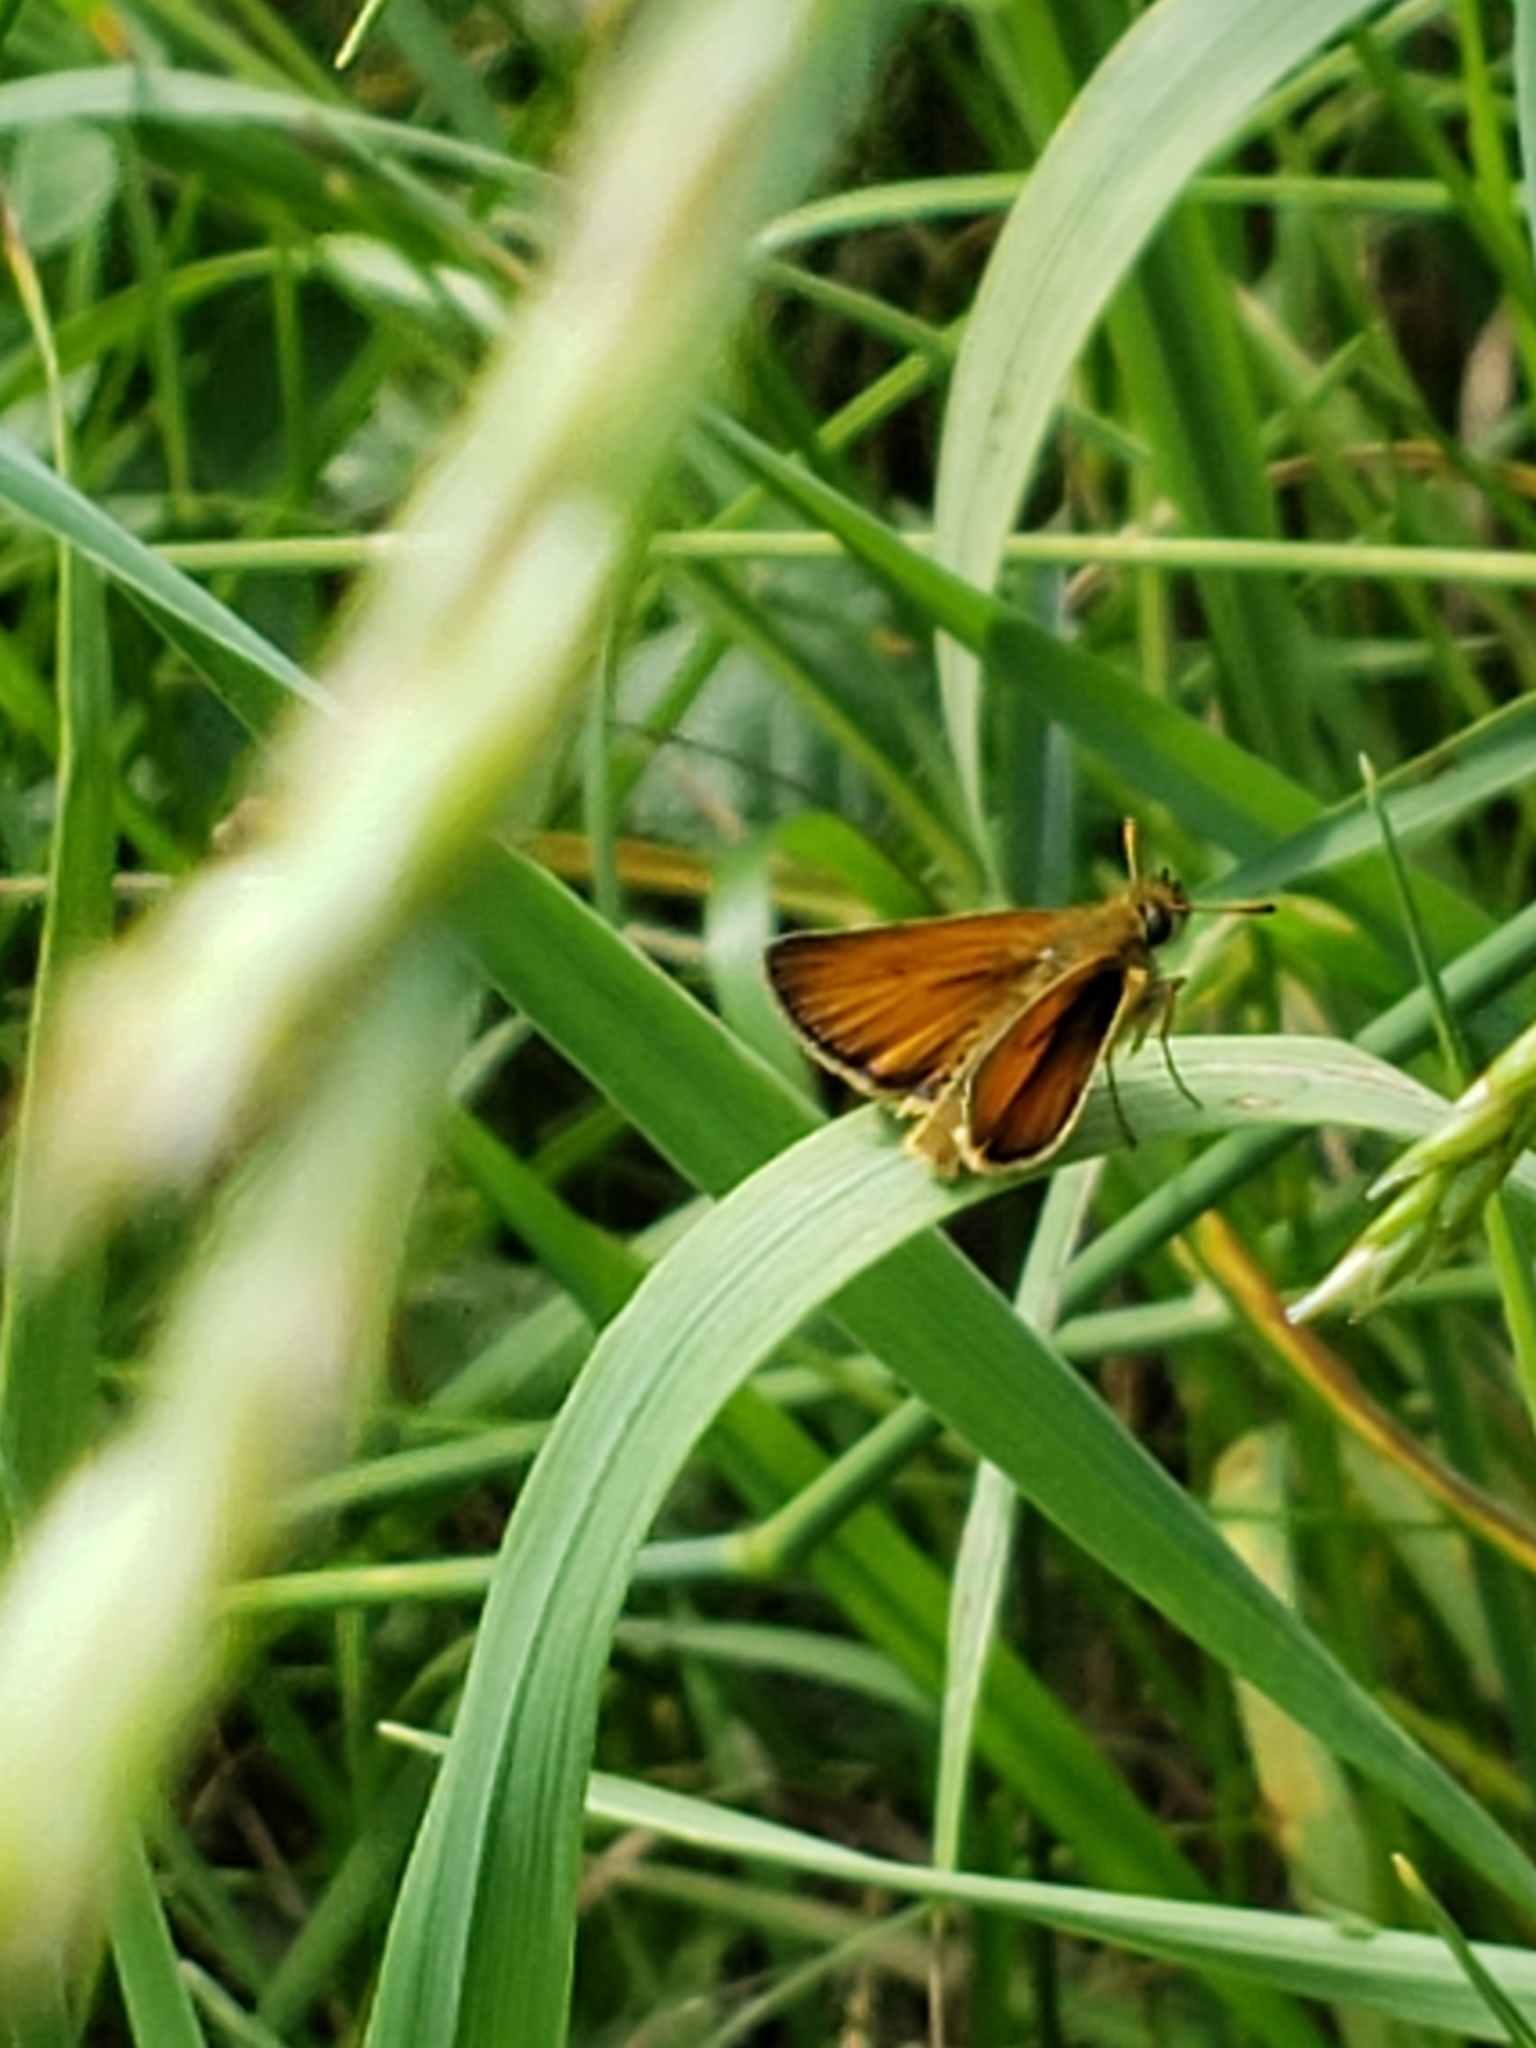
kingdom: Animalia
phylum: Arthropoda
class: Insecta
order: Lepidoptera
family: Hesperiidae
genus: Thymelicus
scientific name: Thymelicus lineola
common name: Essex skipper
